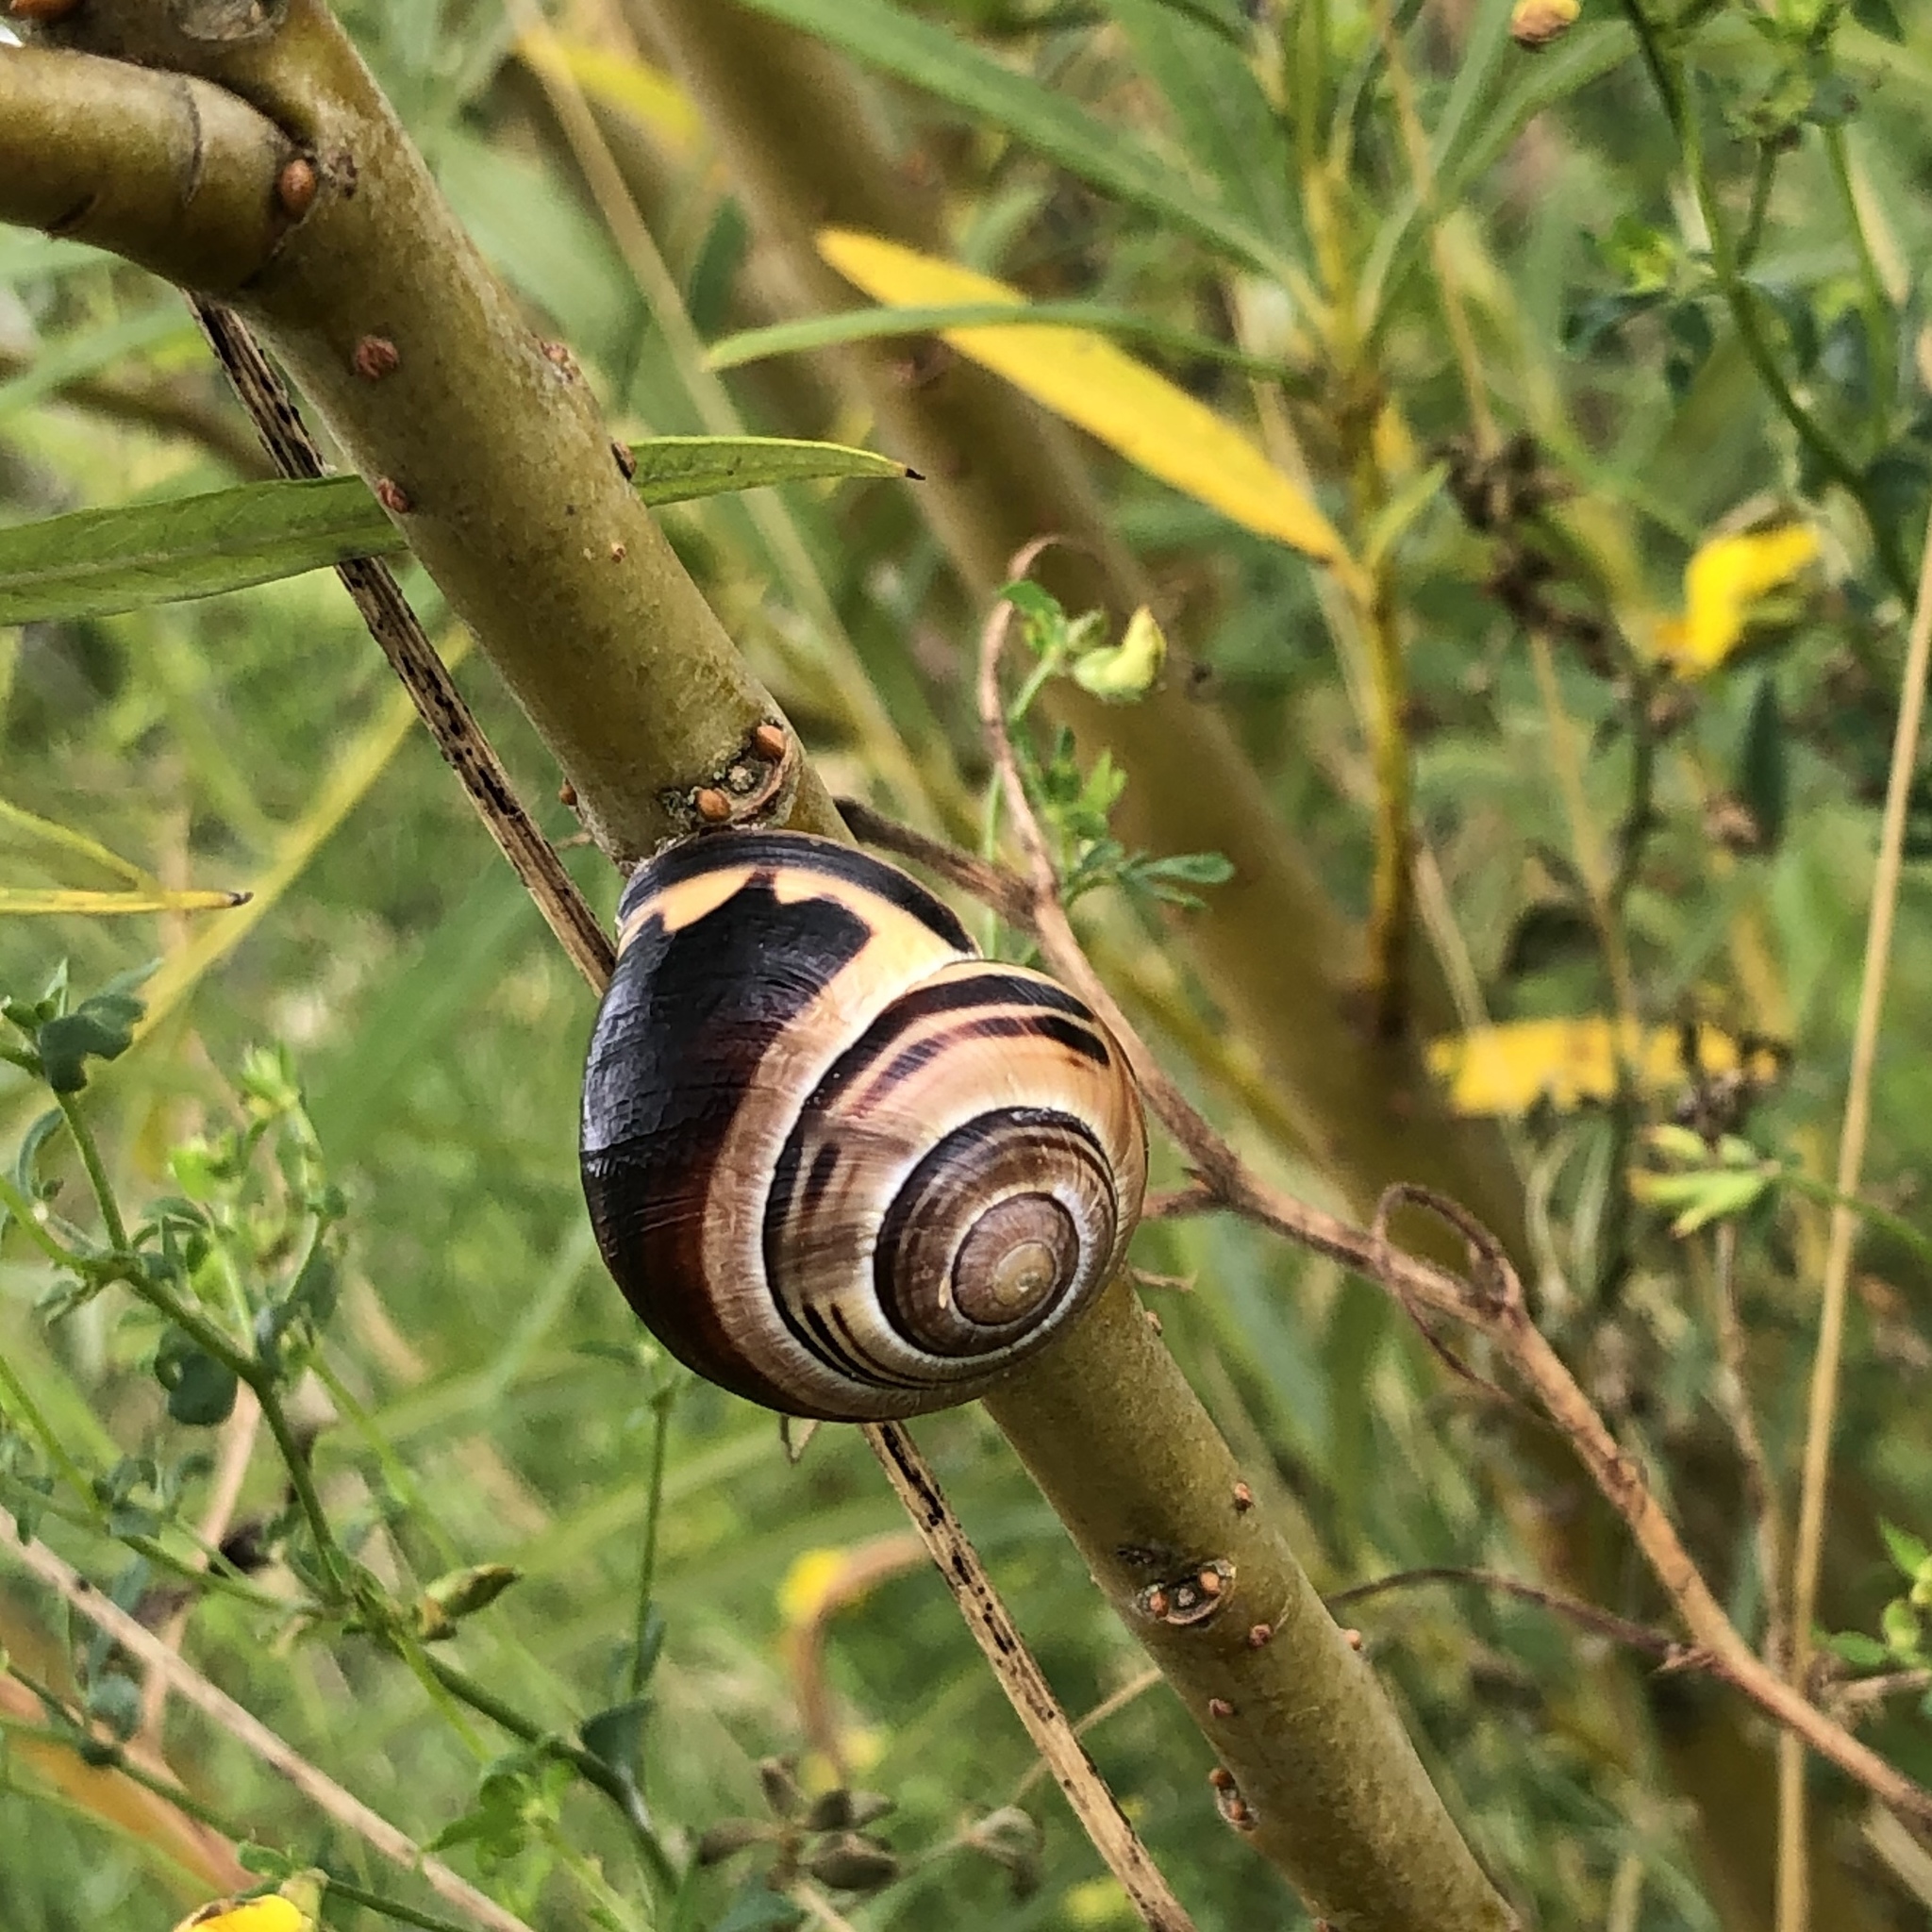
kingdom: Animalia
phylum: Mollusca
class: Gastropoda
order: Stylommatophora
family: Helicidae
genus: Cepaea
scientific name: Cepaea nemoralis
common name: Grovesnail
